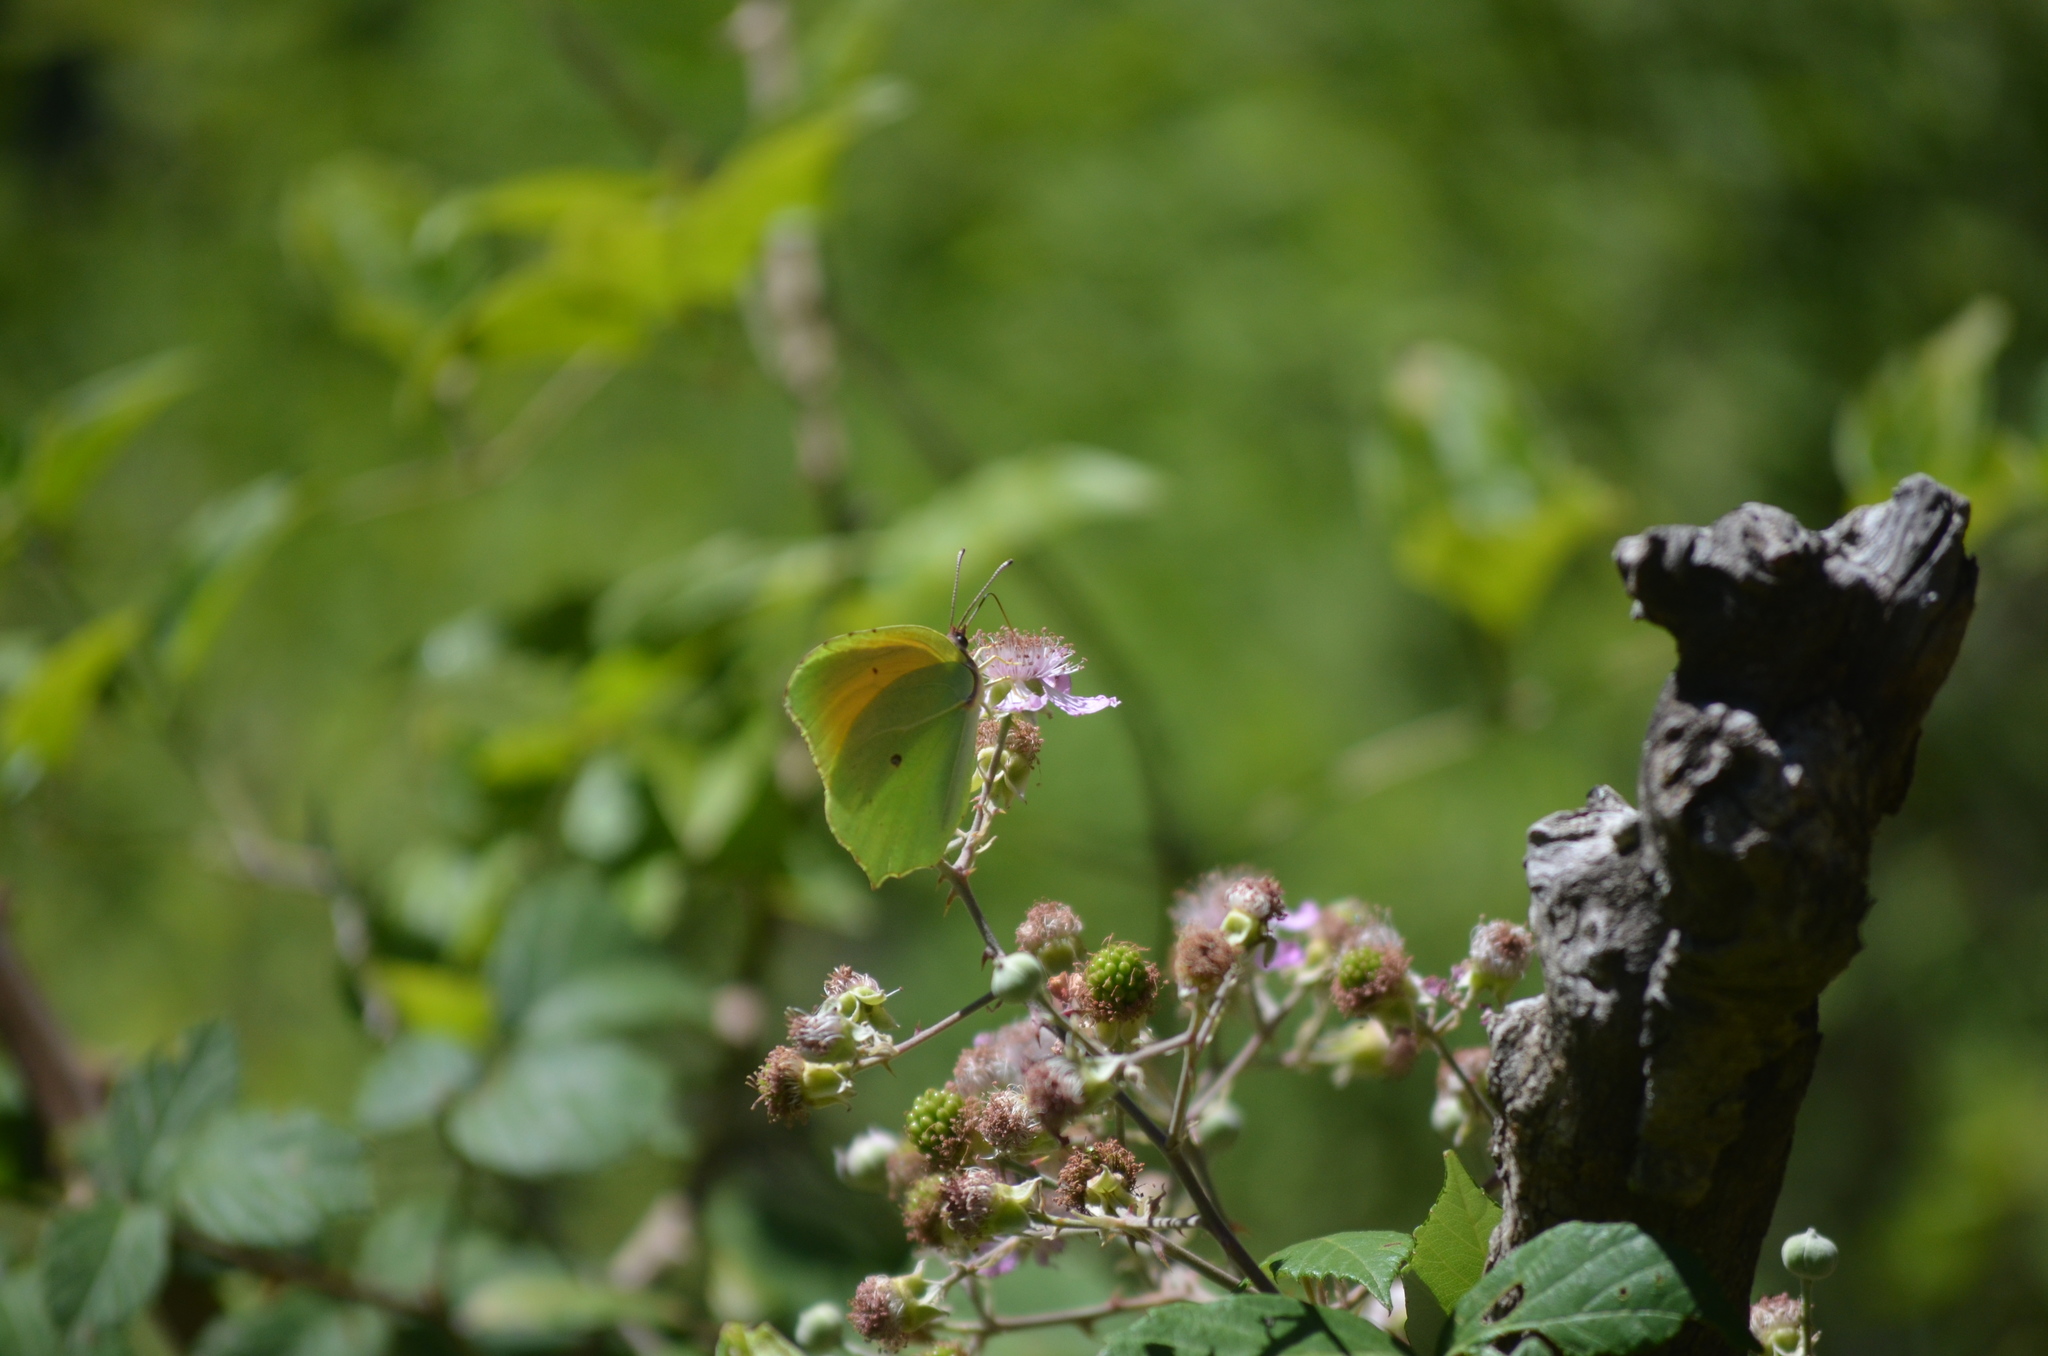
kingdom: Animalia
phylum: Arthropoda
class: Insecta
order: Lepidoptera
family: Pieridae
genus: Gonepteryx
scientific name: Gonepteryx cleopatra
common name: Cleopatra
